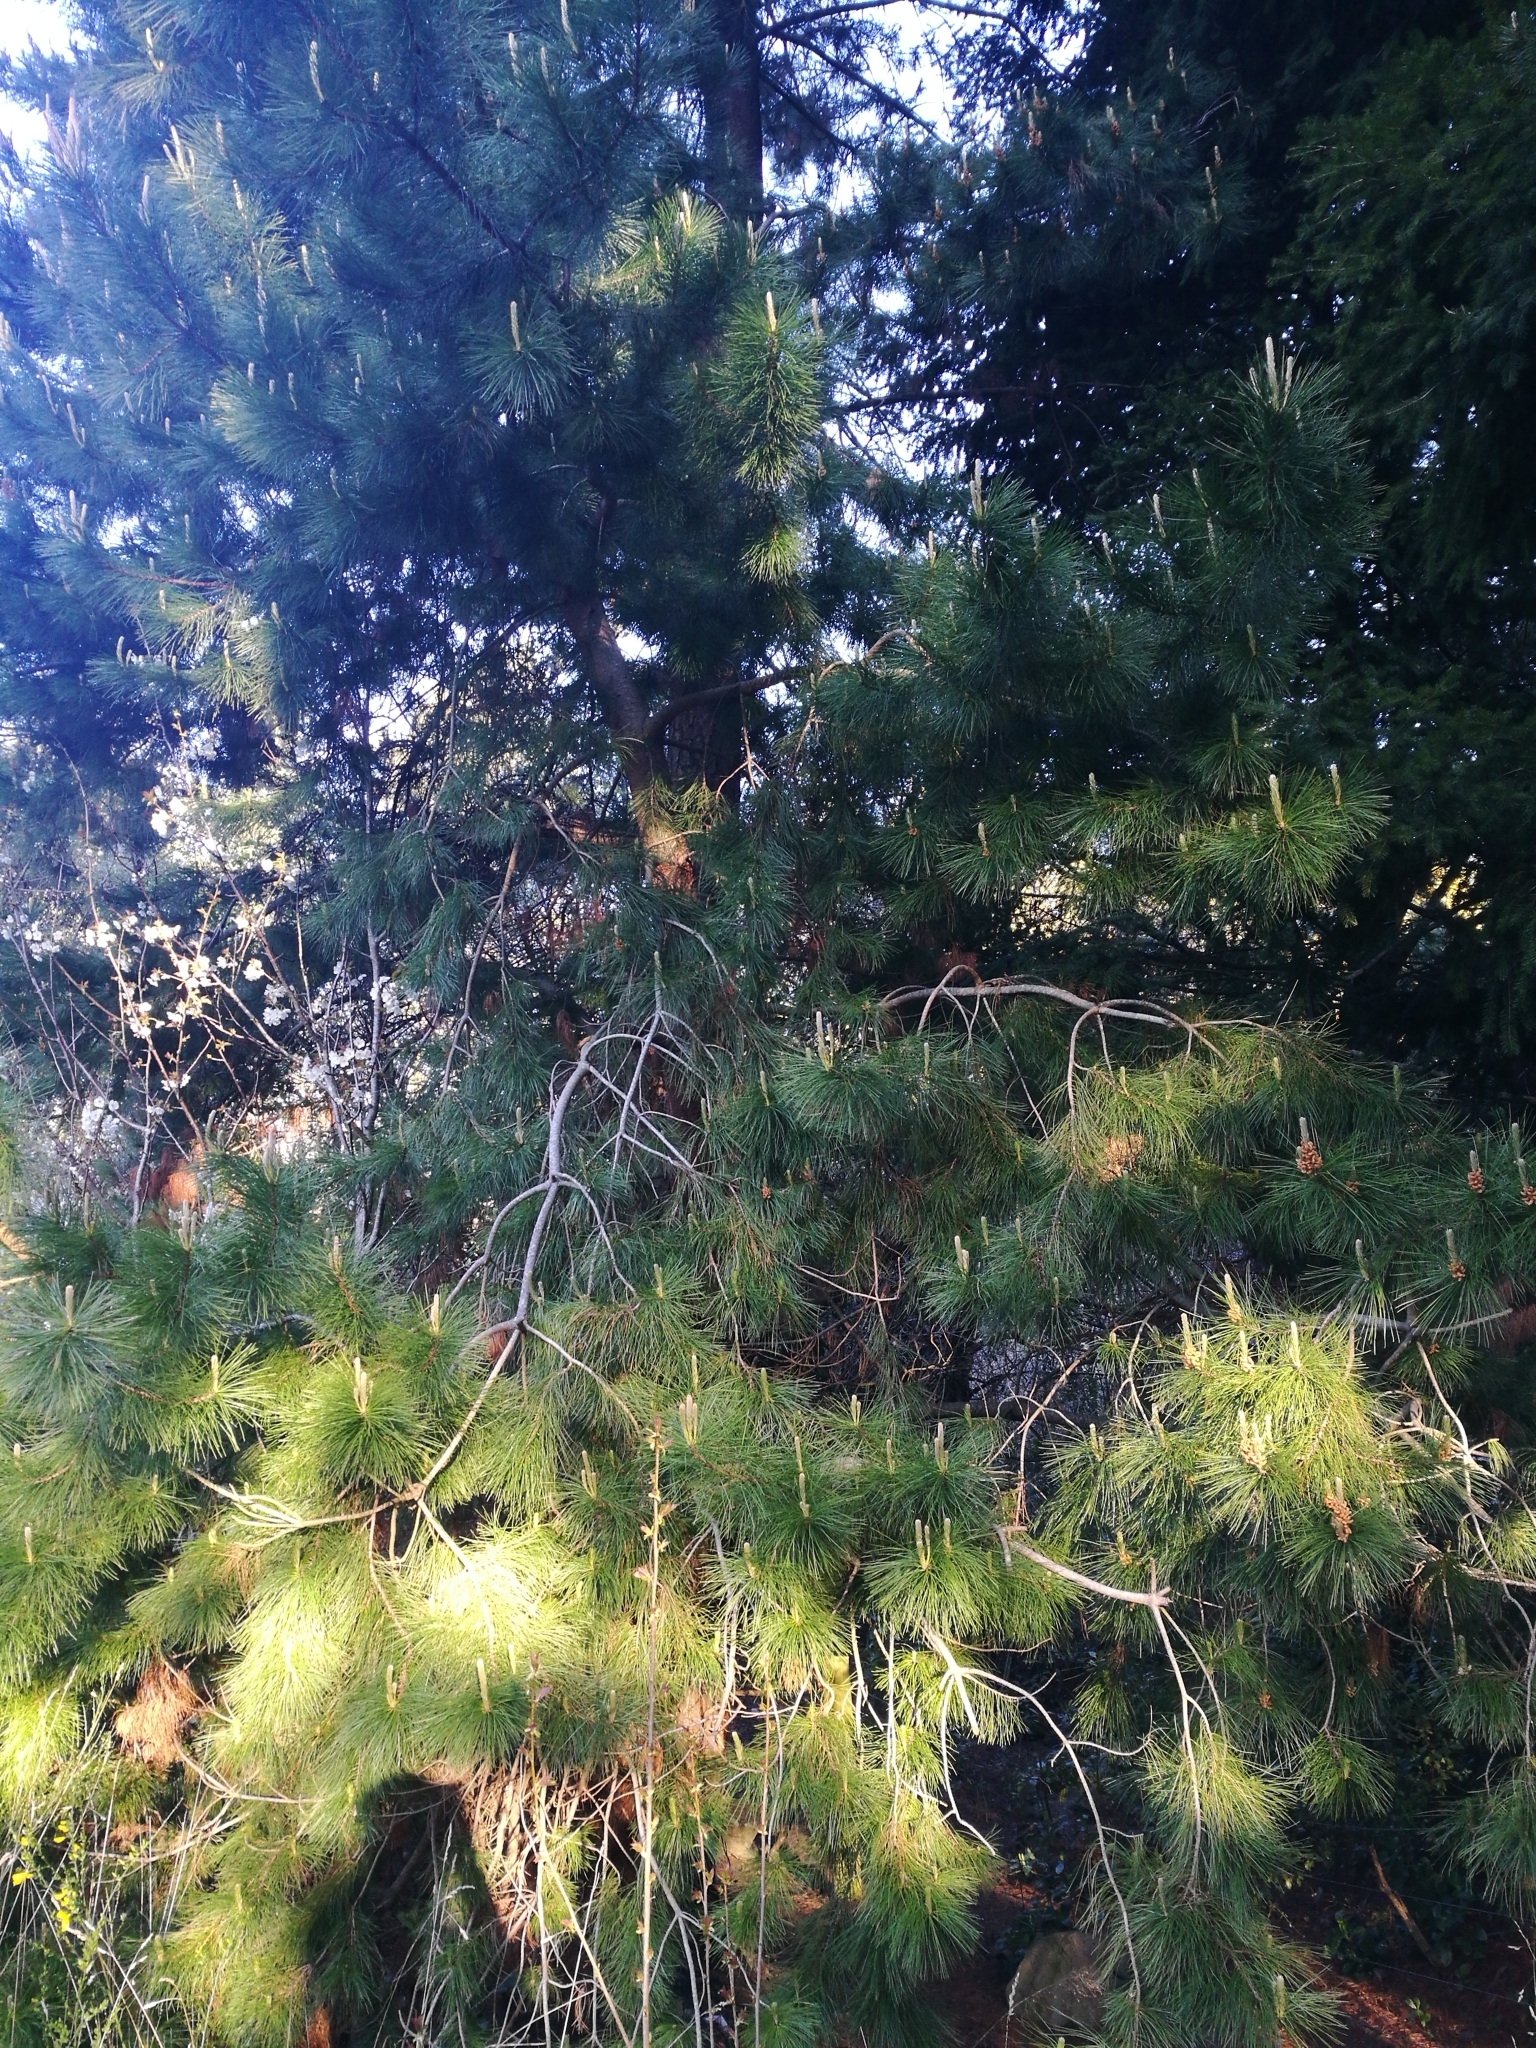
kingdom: Plantae
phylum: Tracheophyta
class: Pinopsida
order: Pinales
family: Pinaceae
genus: Pinus
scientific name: Pinus radiata
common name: Monterey pine
